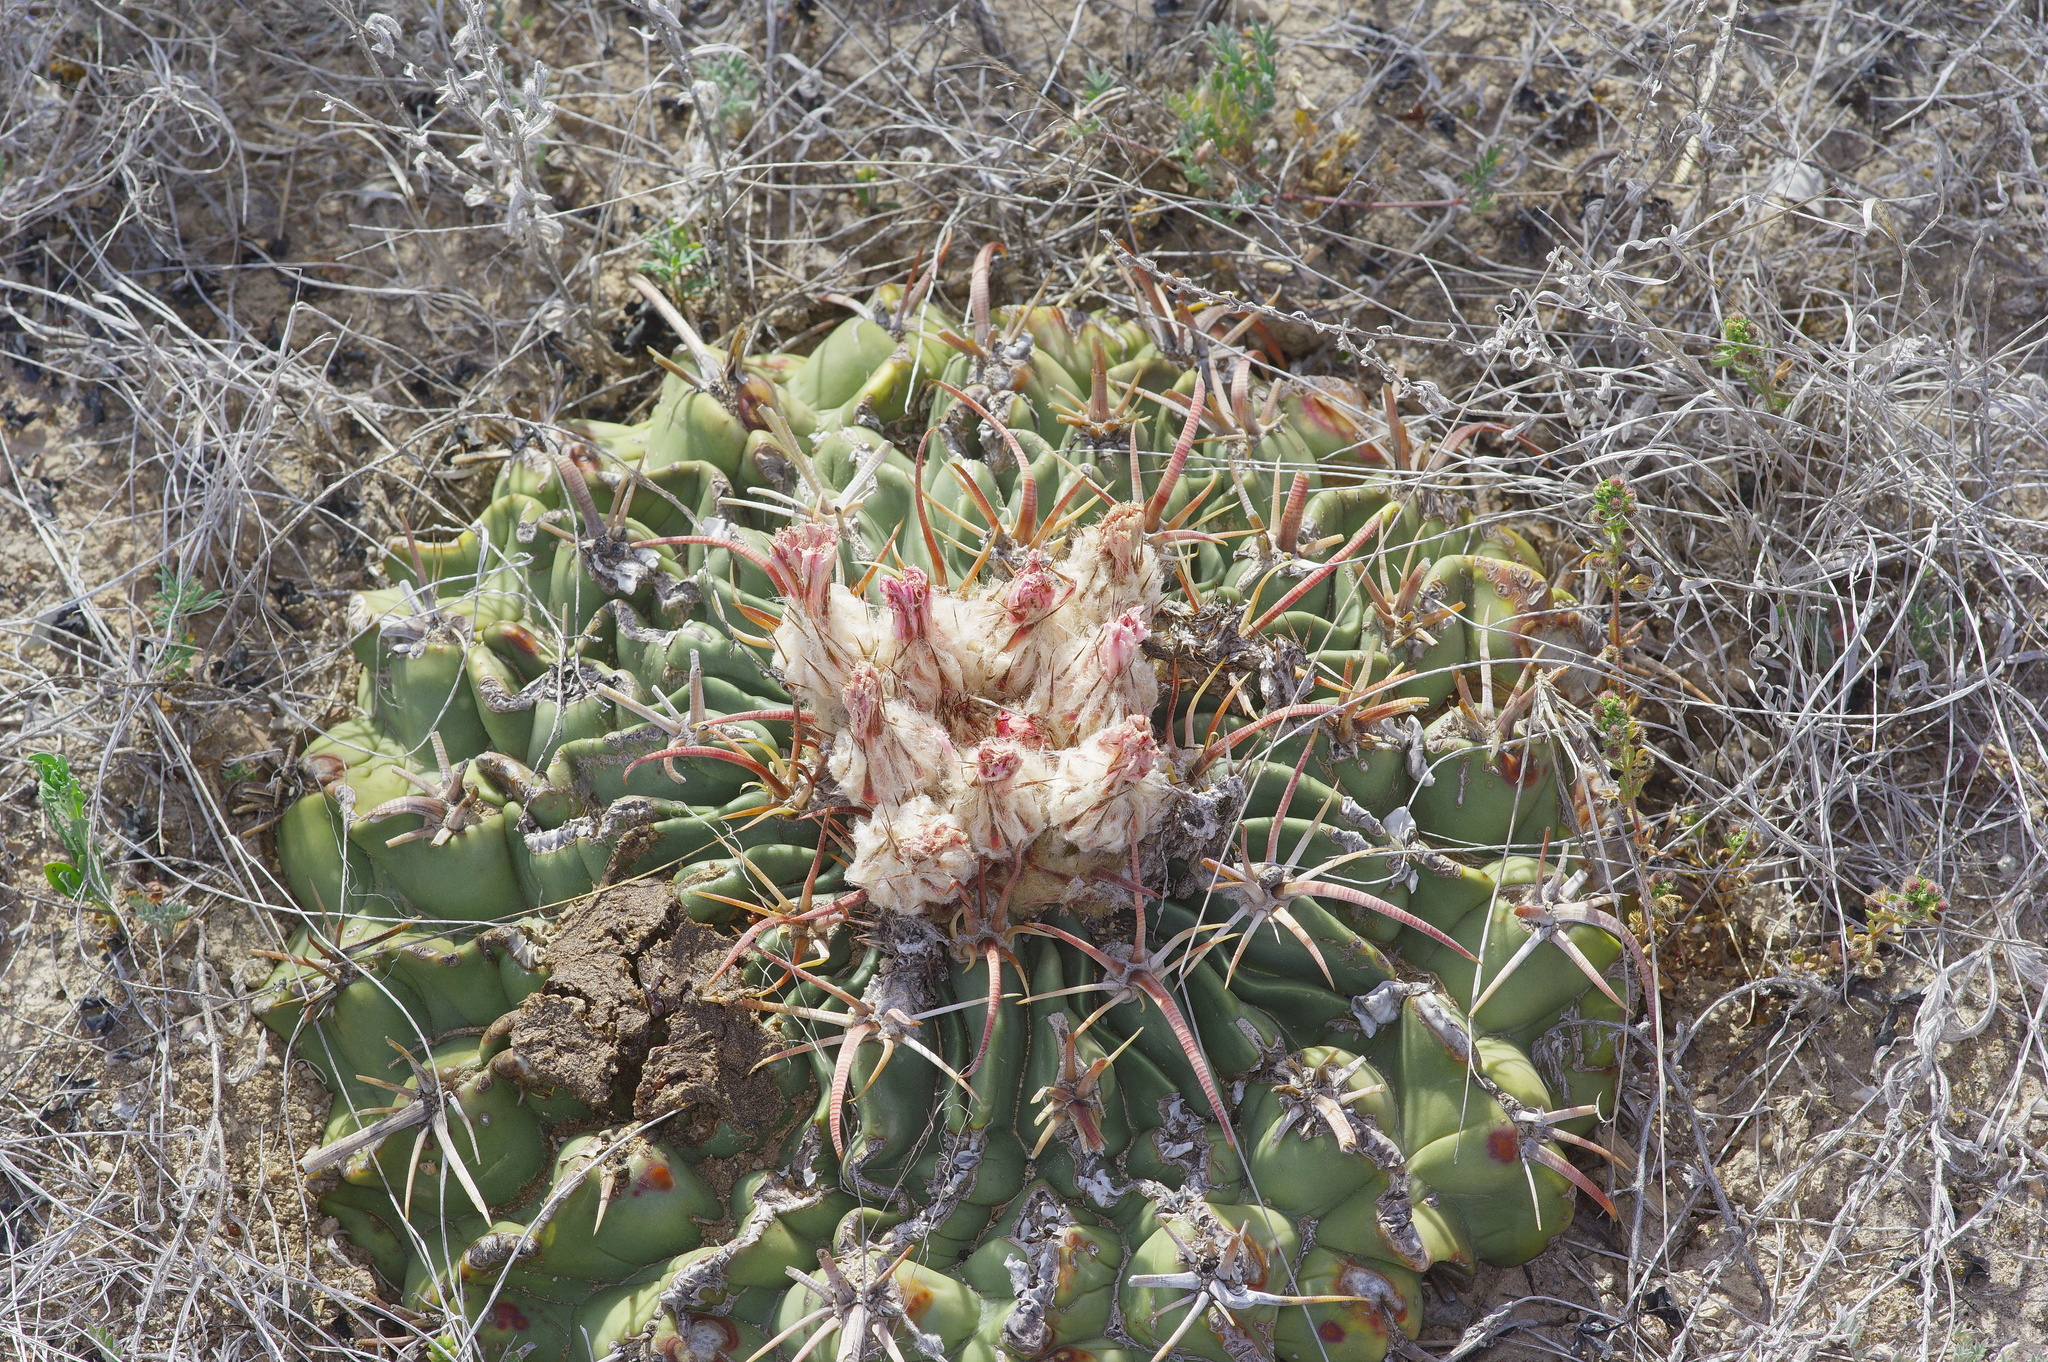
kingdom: Plantae
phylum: Tracheophyta
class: Magnoliopsida
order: Caryophyllales
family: Cactaceae
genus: Echinocactus
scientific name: Echinocactus texensis
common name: Devil's pincushion
